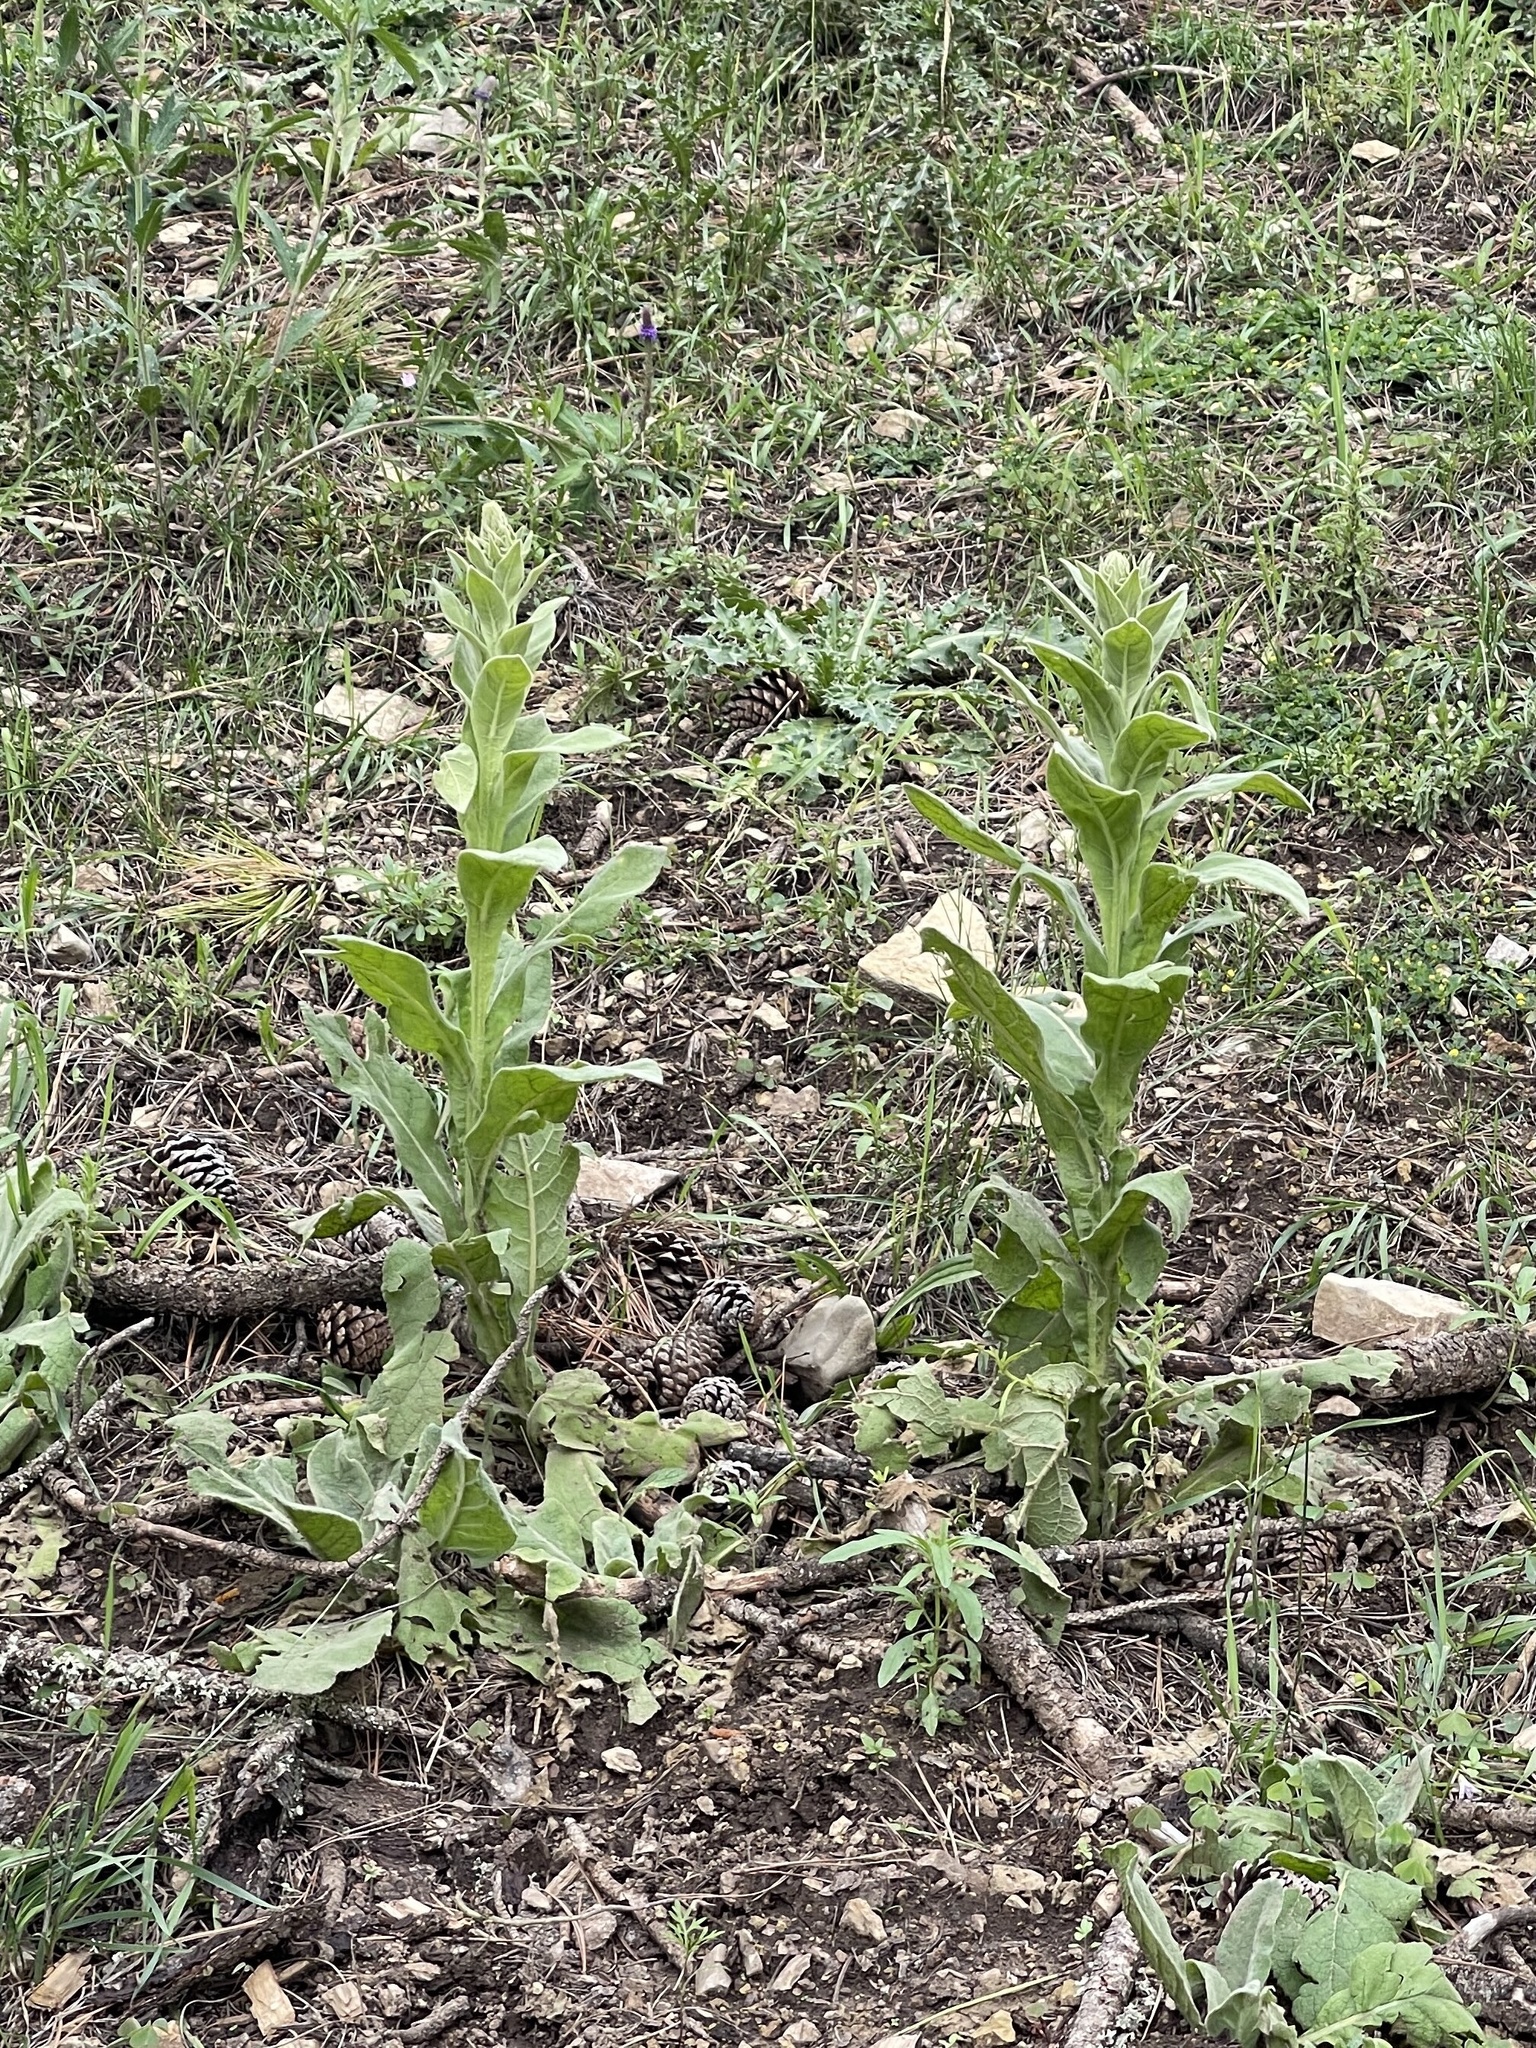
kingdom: Plantae
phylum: Tracheophyta
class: Magnoliopsida
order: Lamiales
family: Scrophulariaceae
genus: Verbascum
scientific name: Verbascum thapsus
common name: Common mullein
